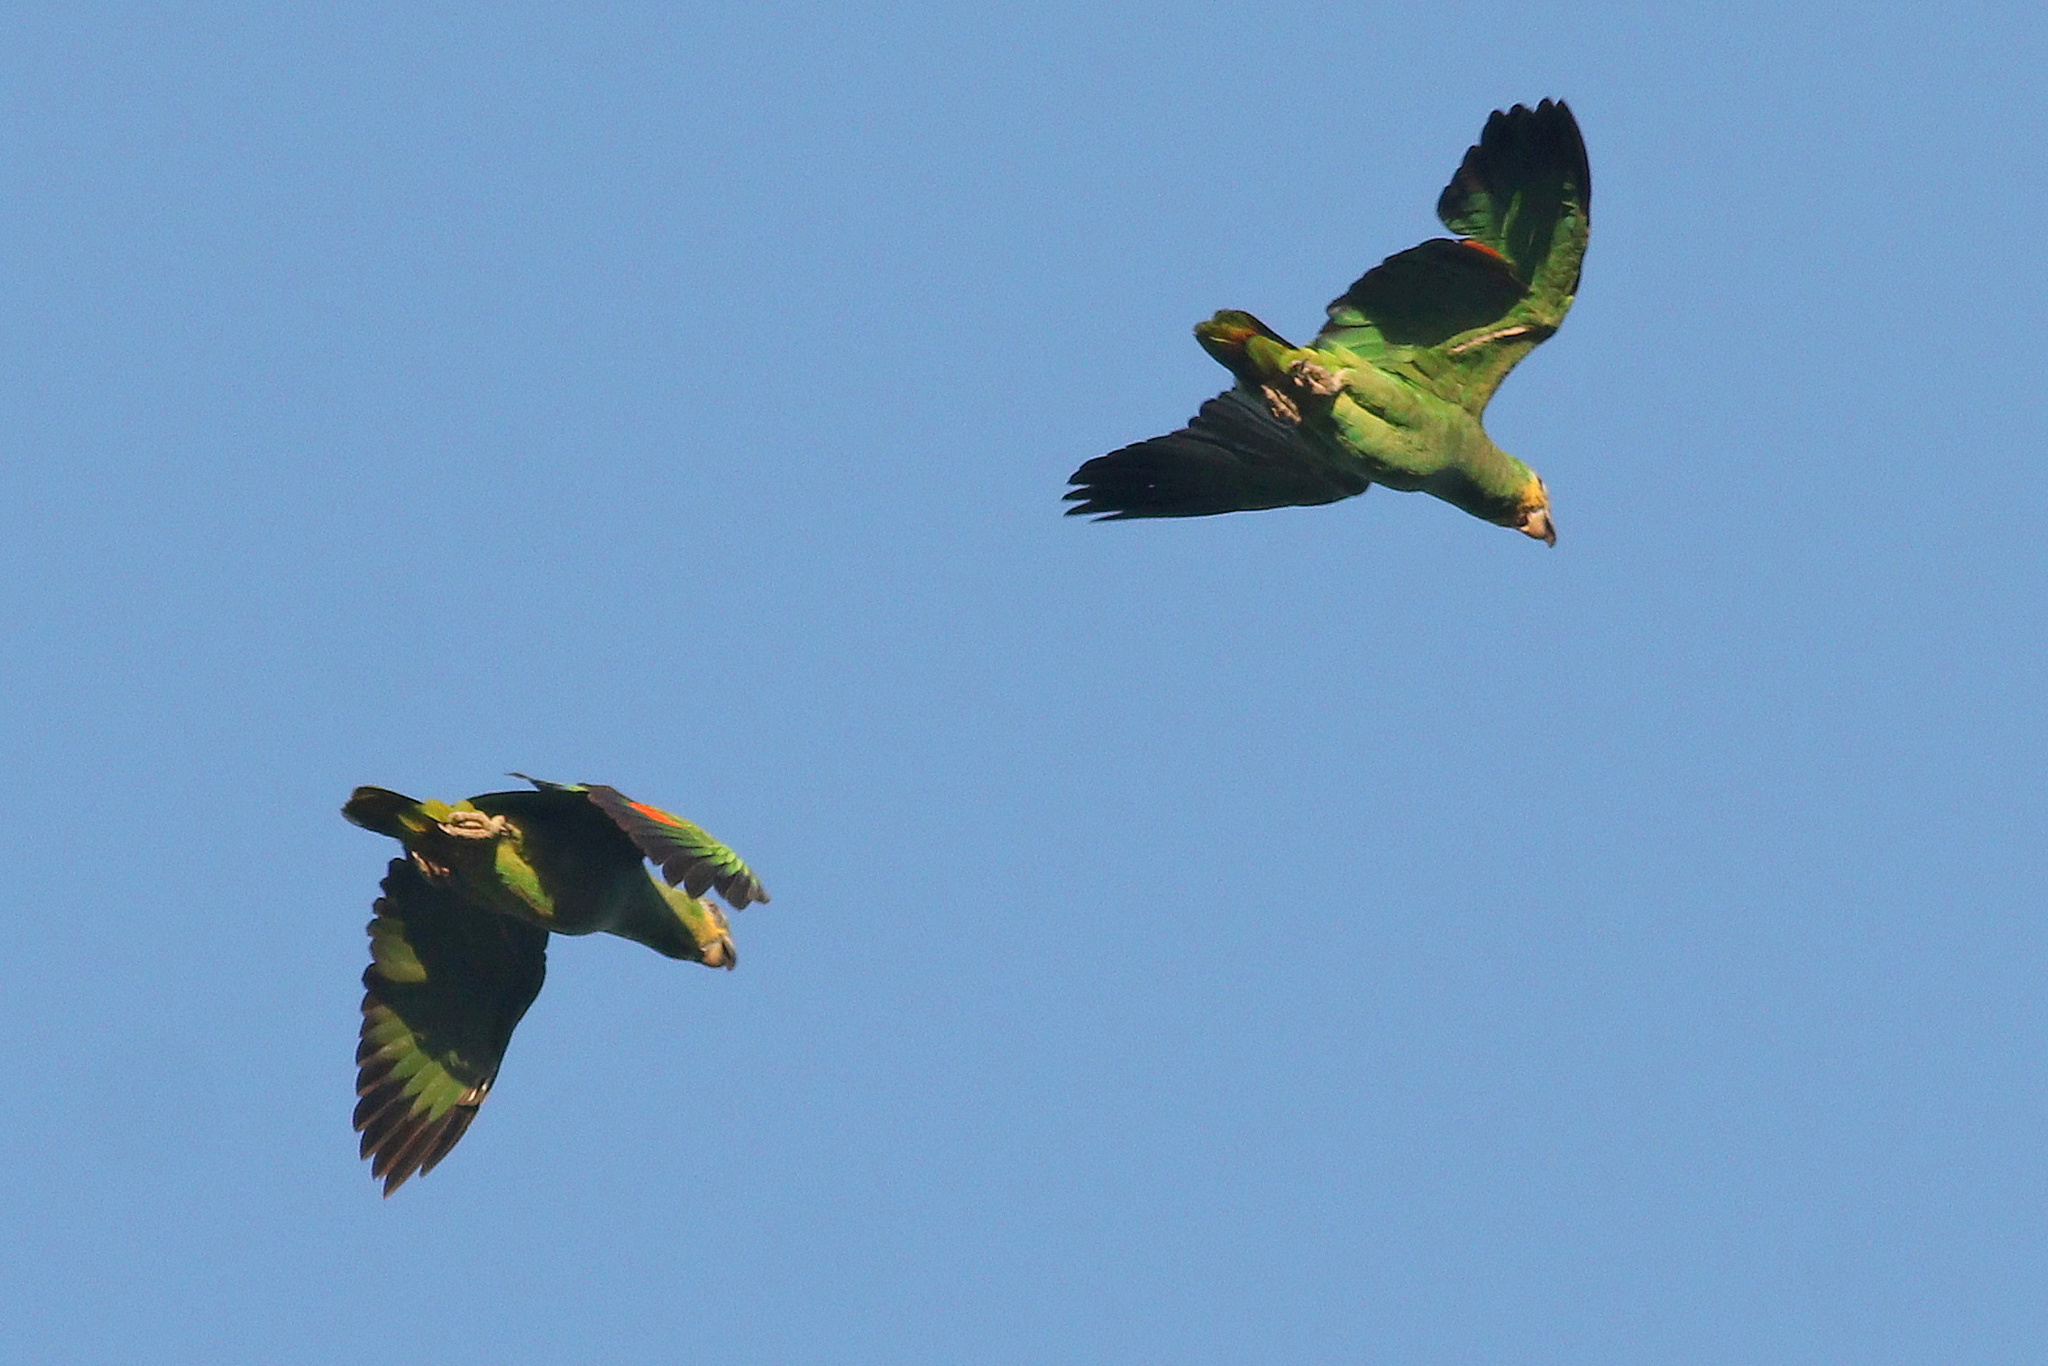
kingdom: Animalia
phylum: Chordata
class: Aves
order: Psittaciformes
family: Psittacidae
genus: Amazona
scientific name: Amazona amazonica
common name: Orange-winged amazon
